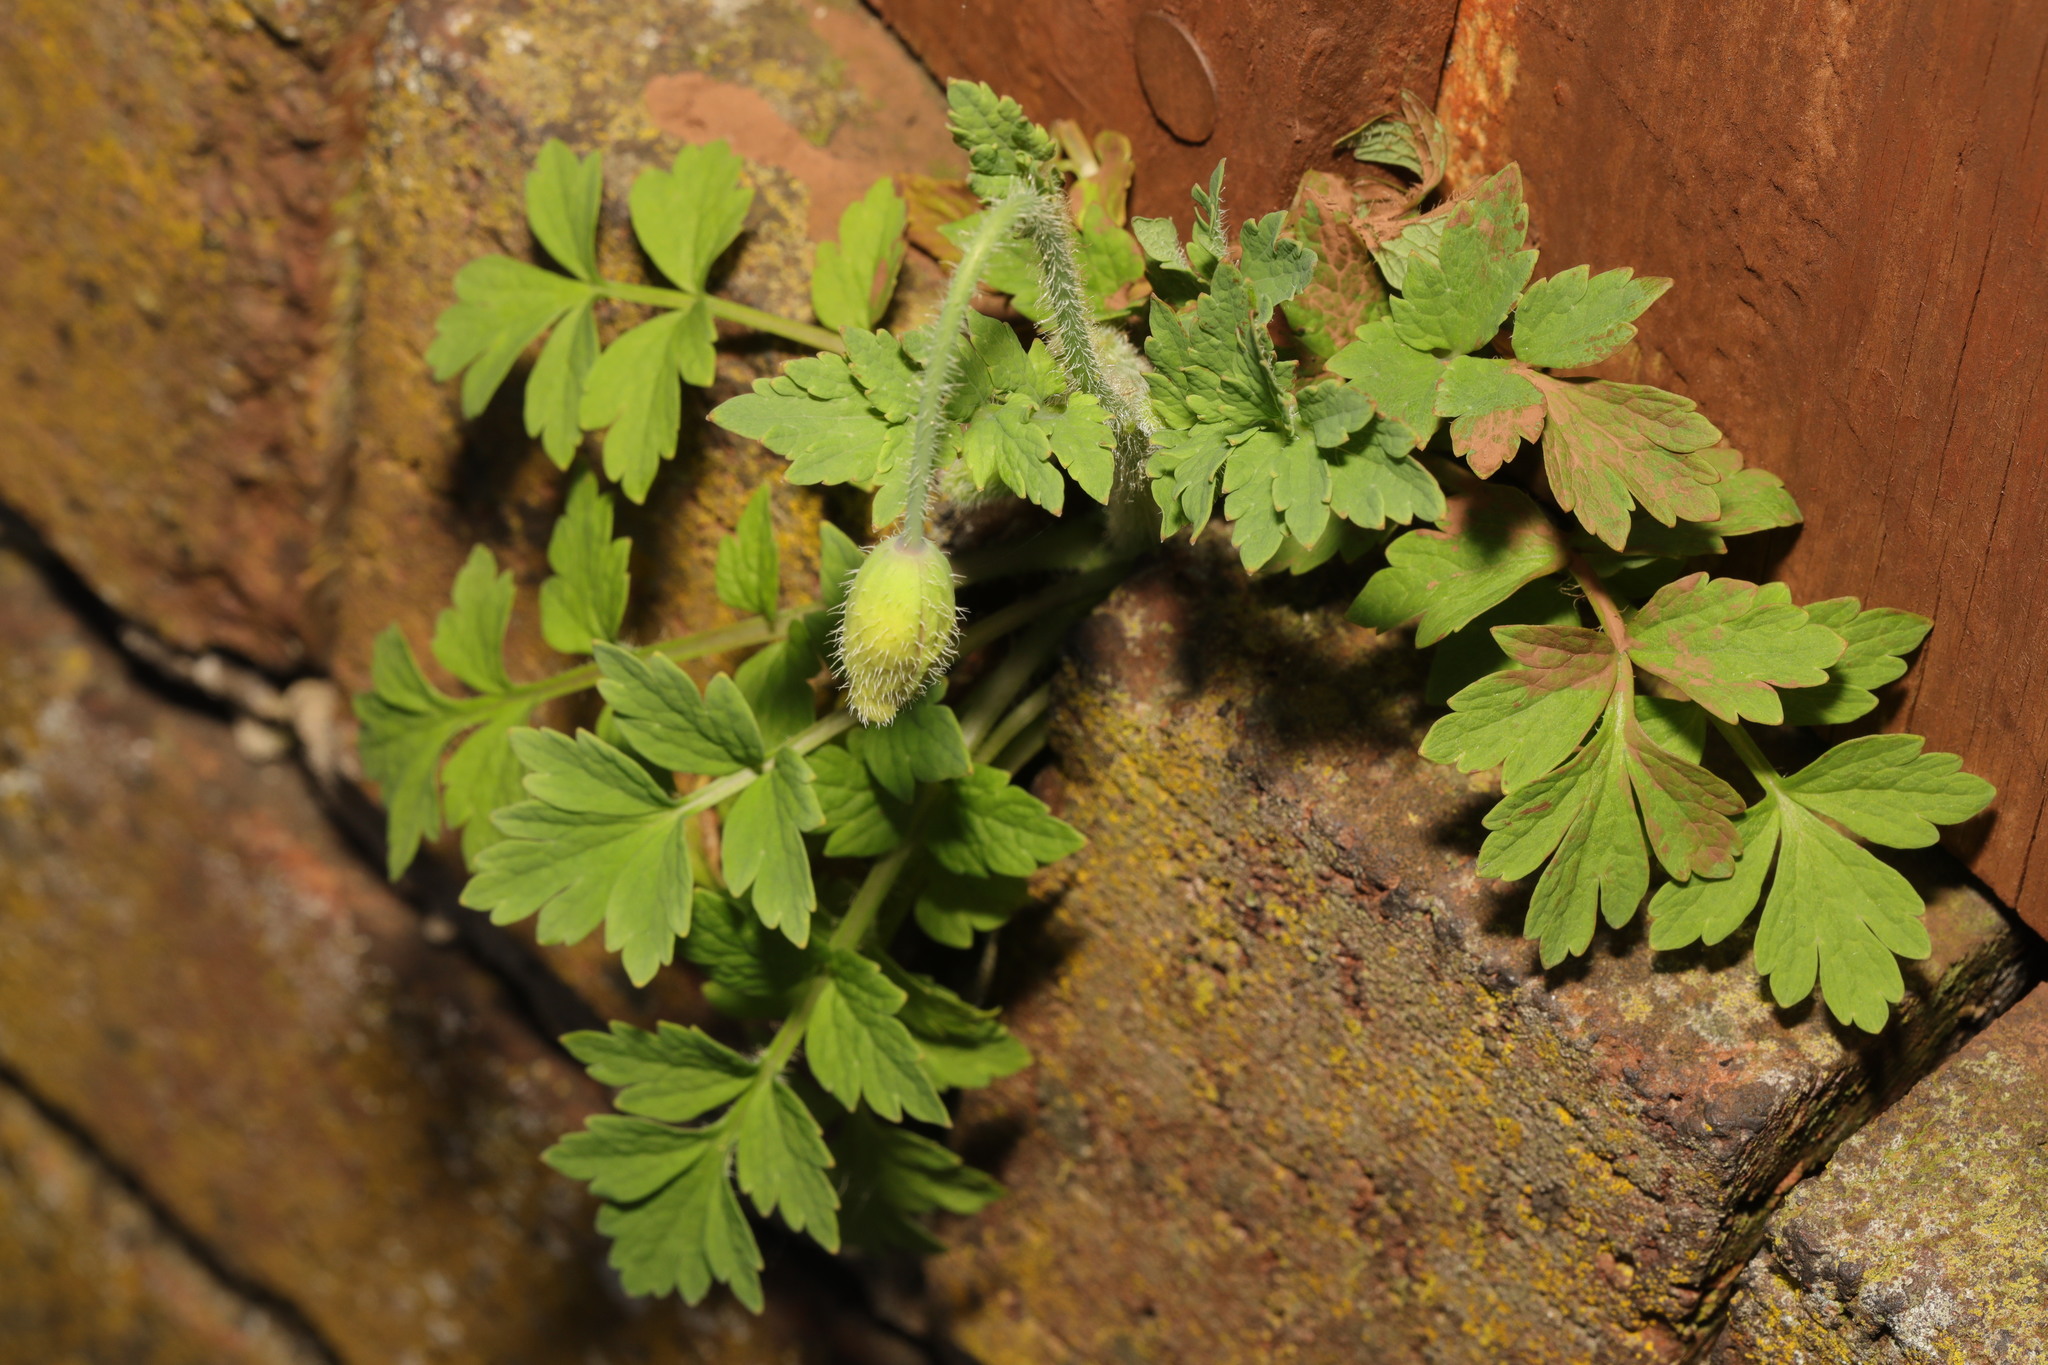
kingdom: Plantae
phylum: Tracheophyta
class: Magnoliopsida
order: Ranunculales
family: Papaveraceae
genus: Papaver
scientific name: Papaver cambricum
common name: Poppy
